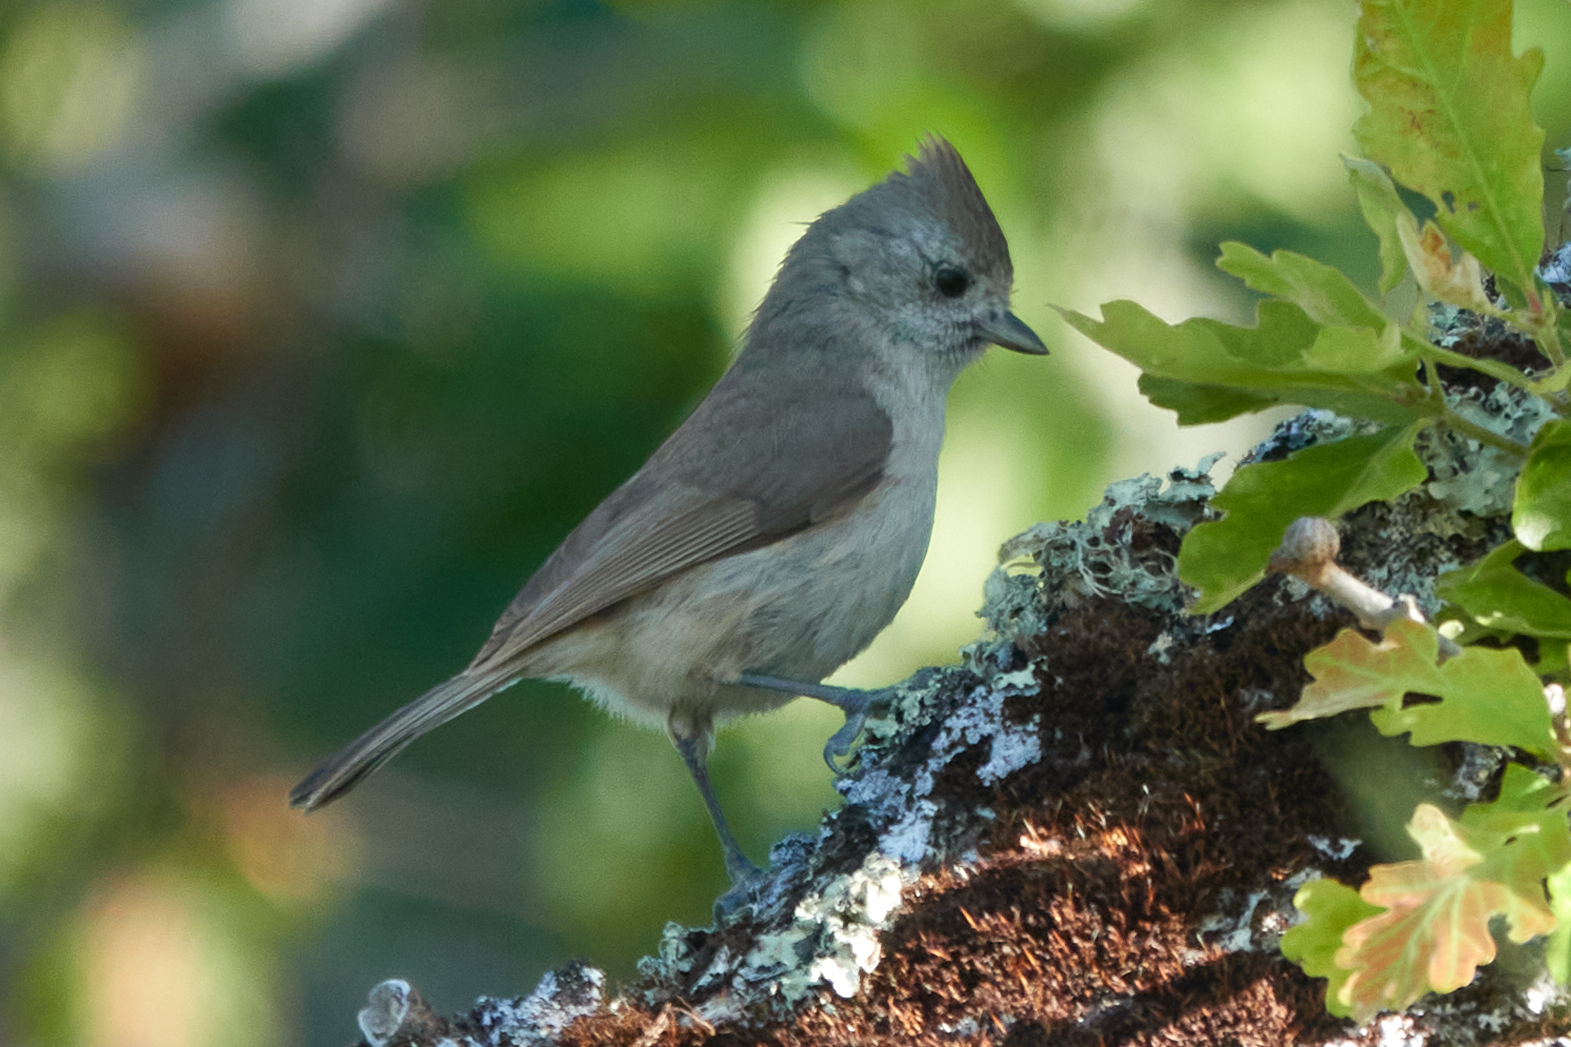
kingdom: Animalia
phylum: Chordata
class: Aves
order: Passeriformes
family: Paridae
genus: Baeolophus
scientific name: Baeolophus inornatus
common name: Oak titmouse
